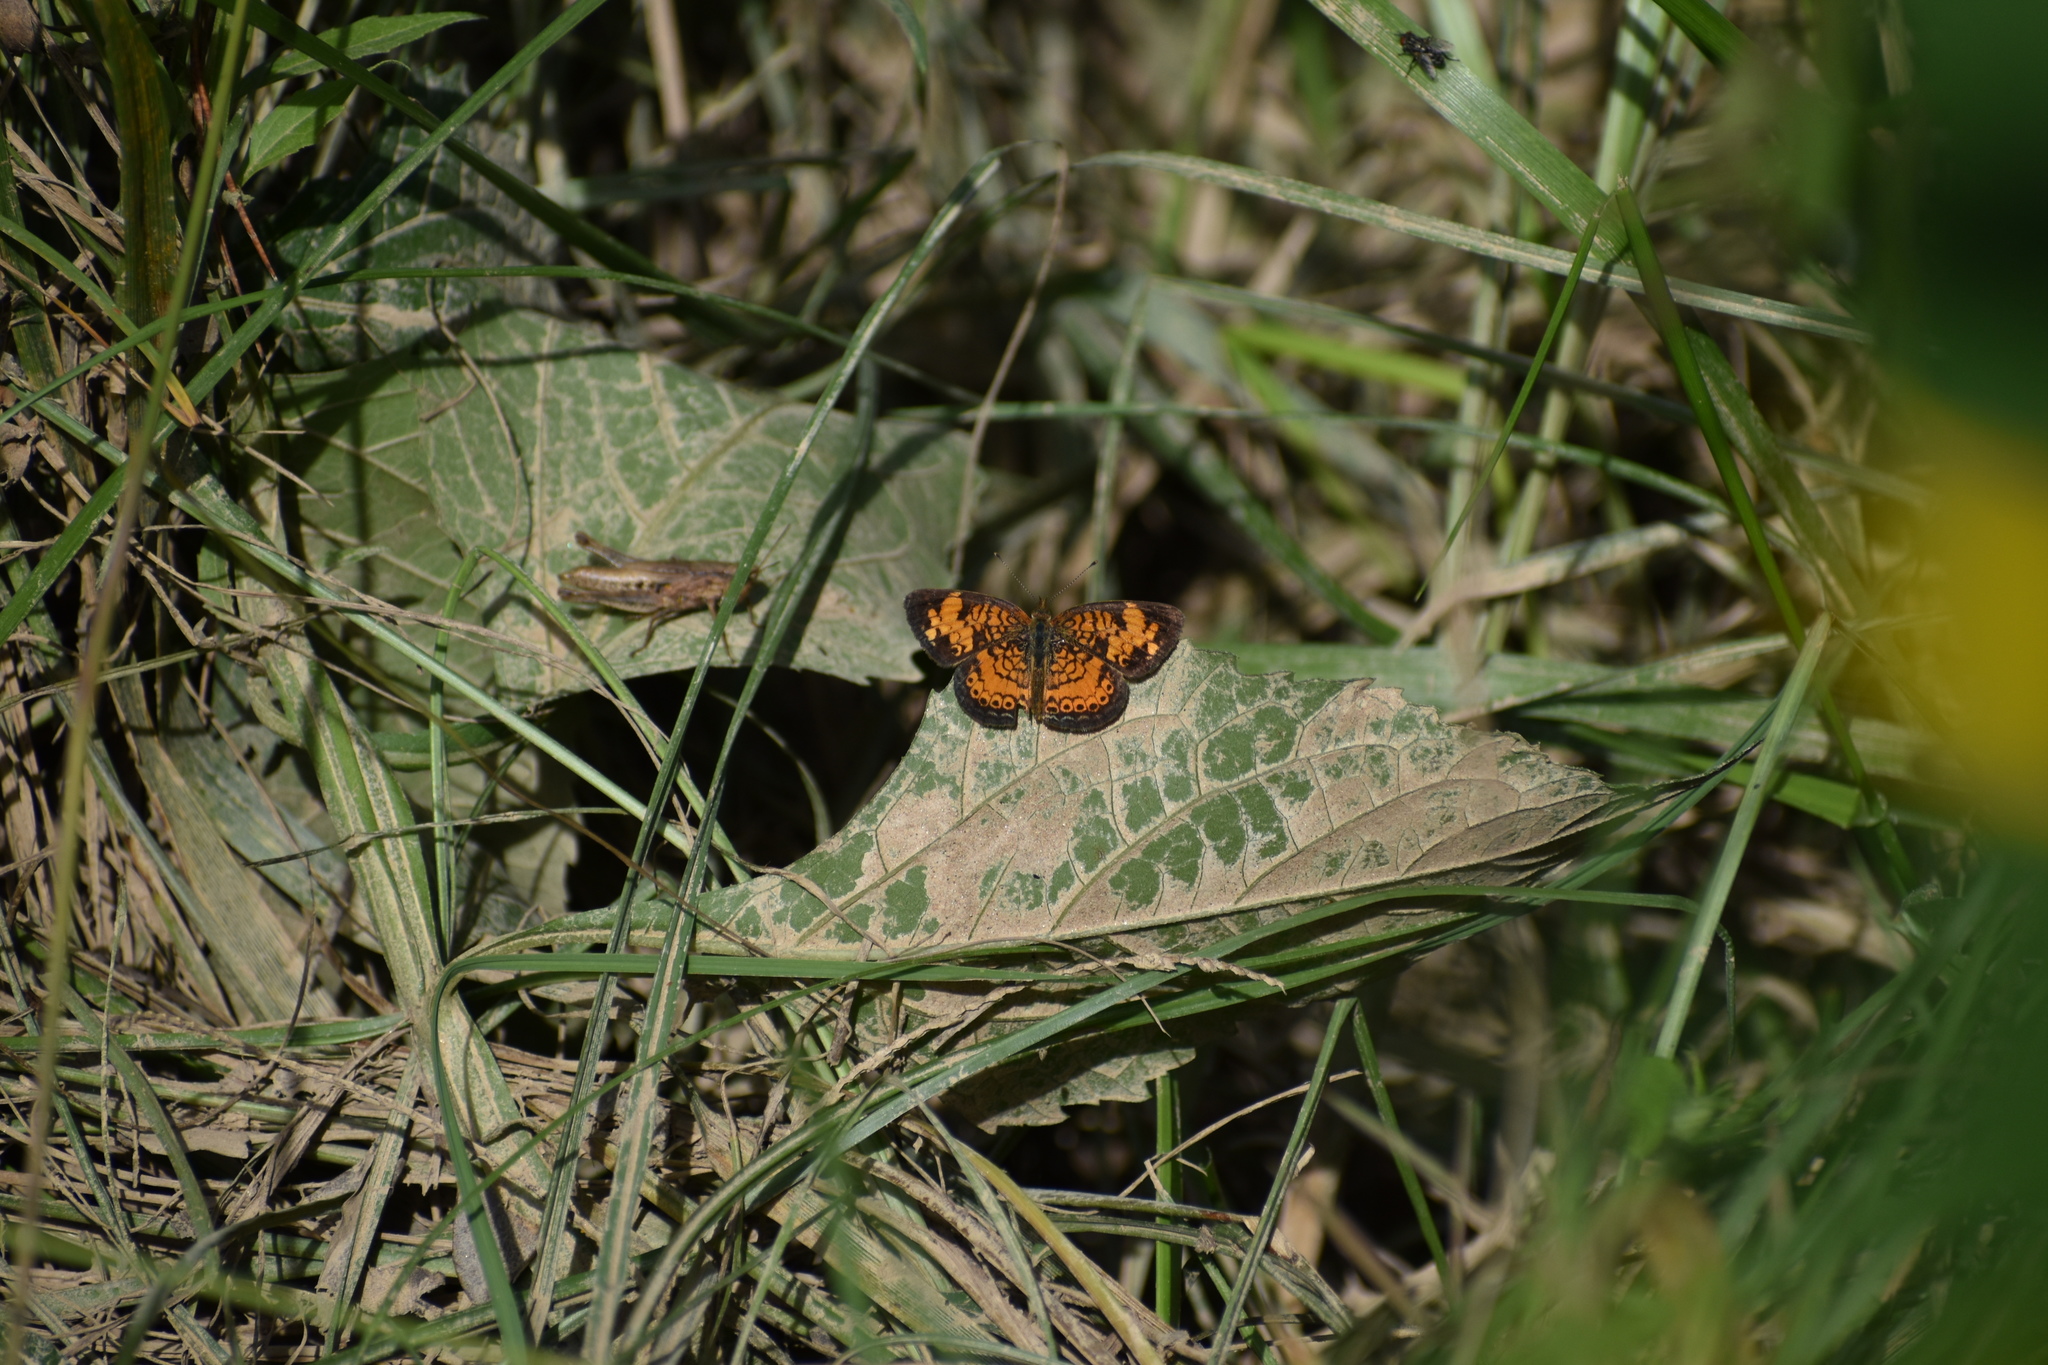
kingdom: Animalia
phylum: Arthropoda
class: Insecta
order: Lepidoptera
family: Nymphalidae
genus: Phyciodes
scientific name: Phyciodes tharos
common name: Pearl crescent
